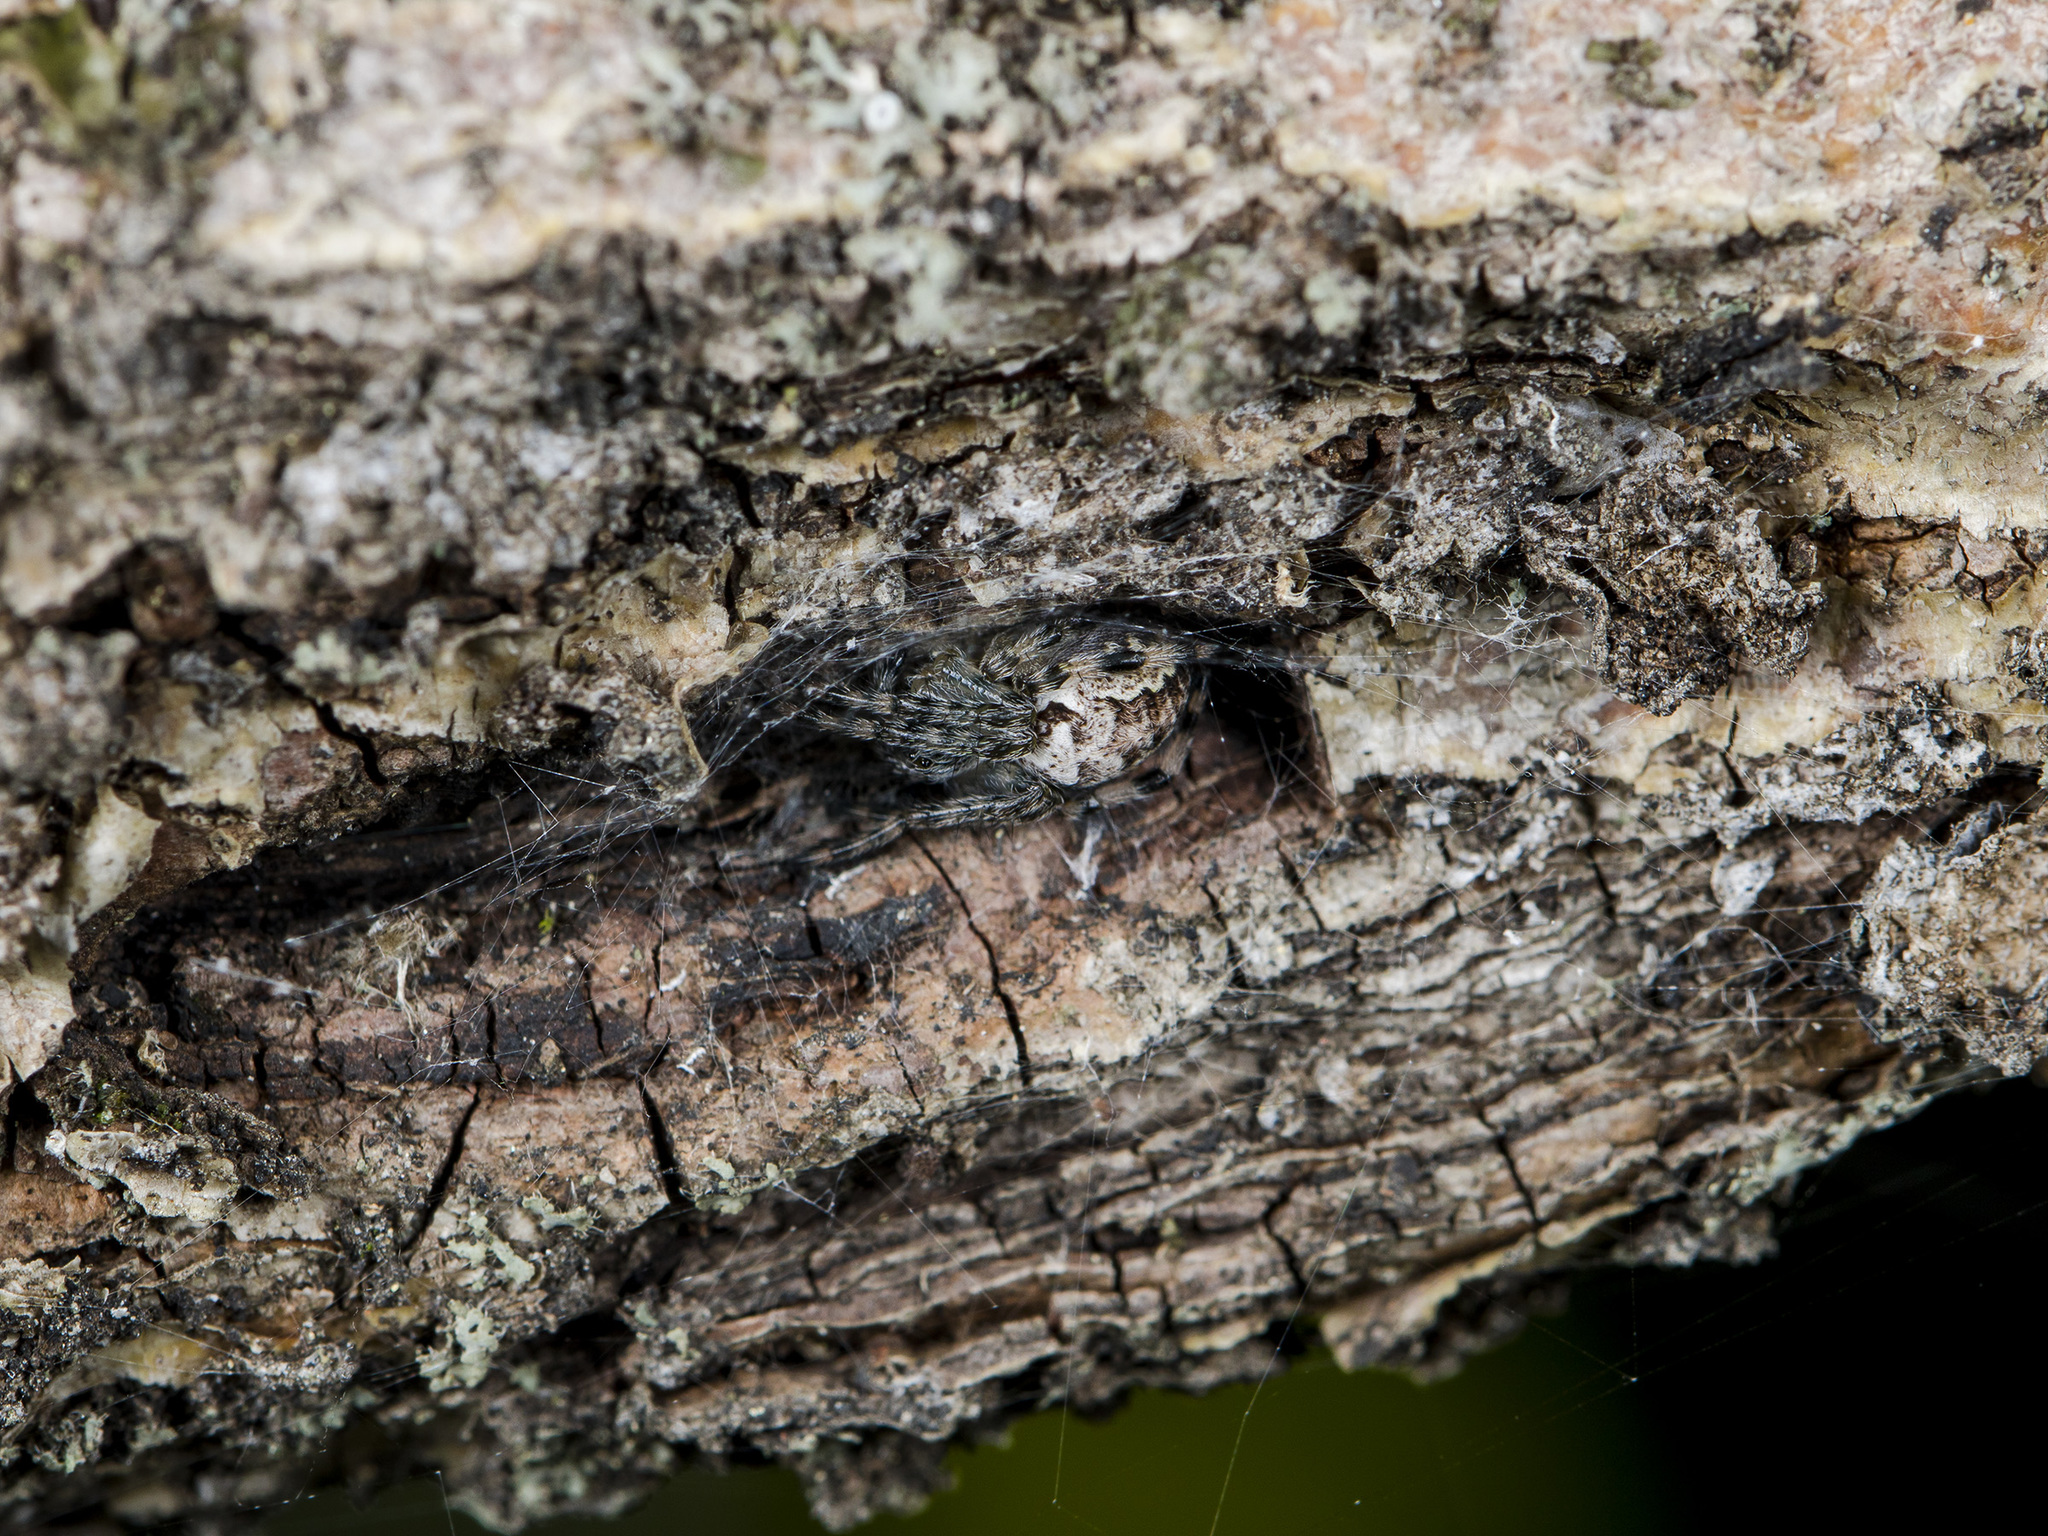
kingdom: Animalia
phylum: Arthropoda
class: Arachnida
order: Araneae
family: Araneidae
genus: Araneus
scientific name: Araneus marmoreus
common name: Marbled orbweaver
